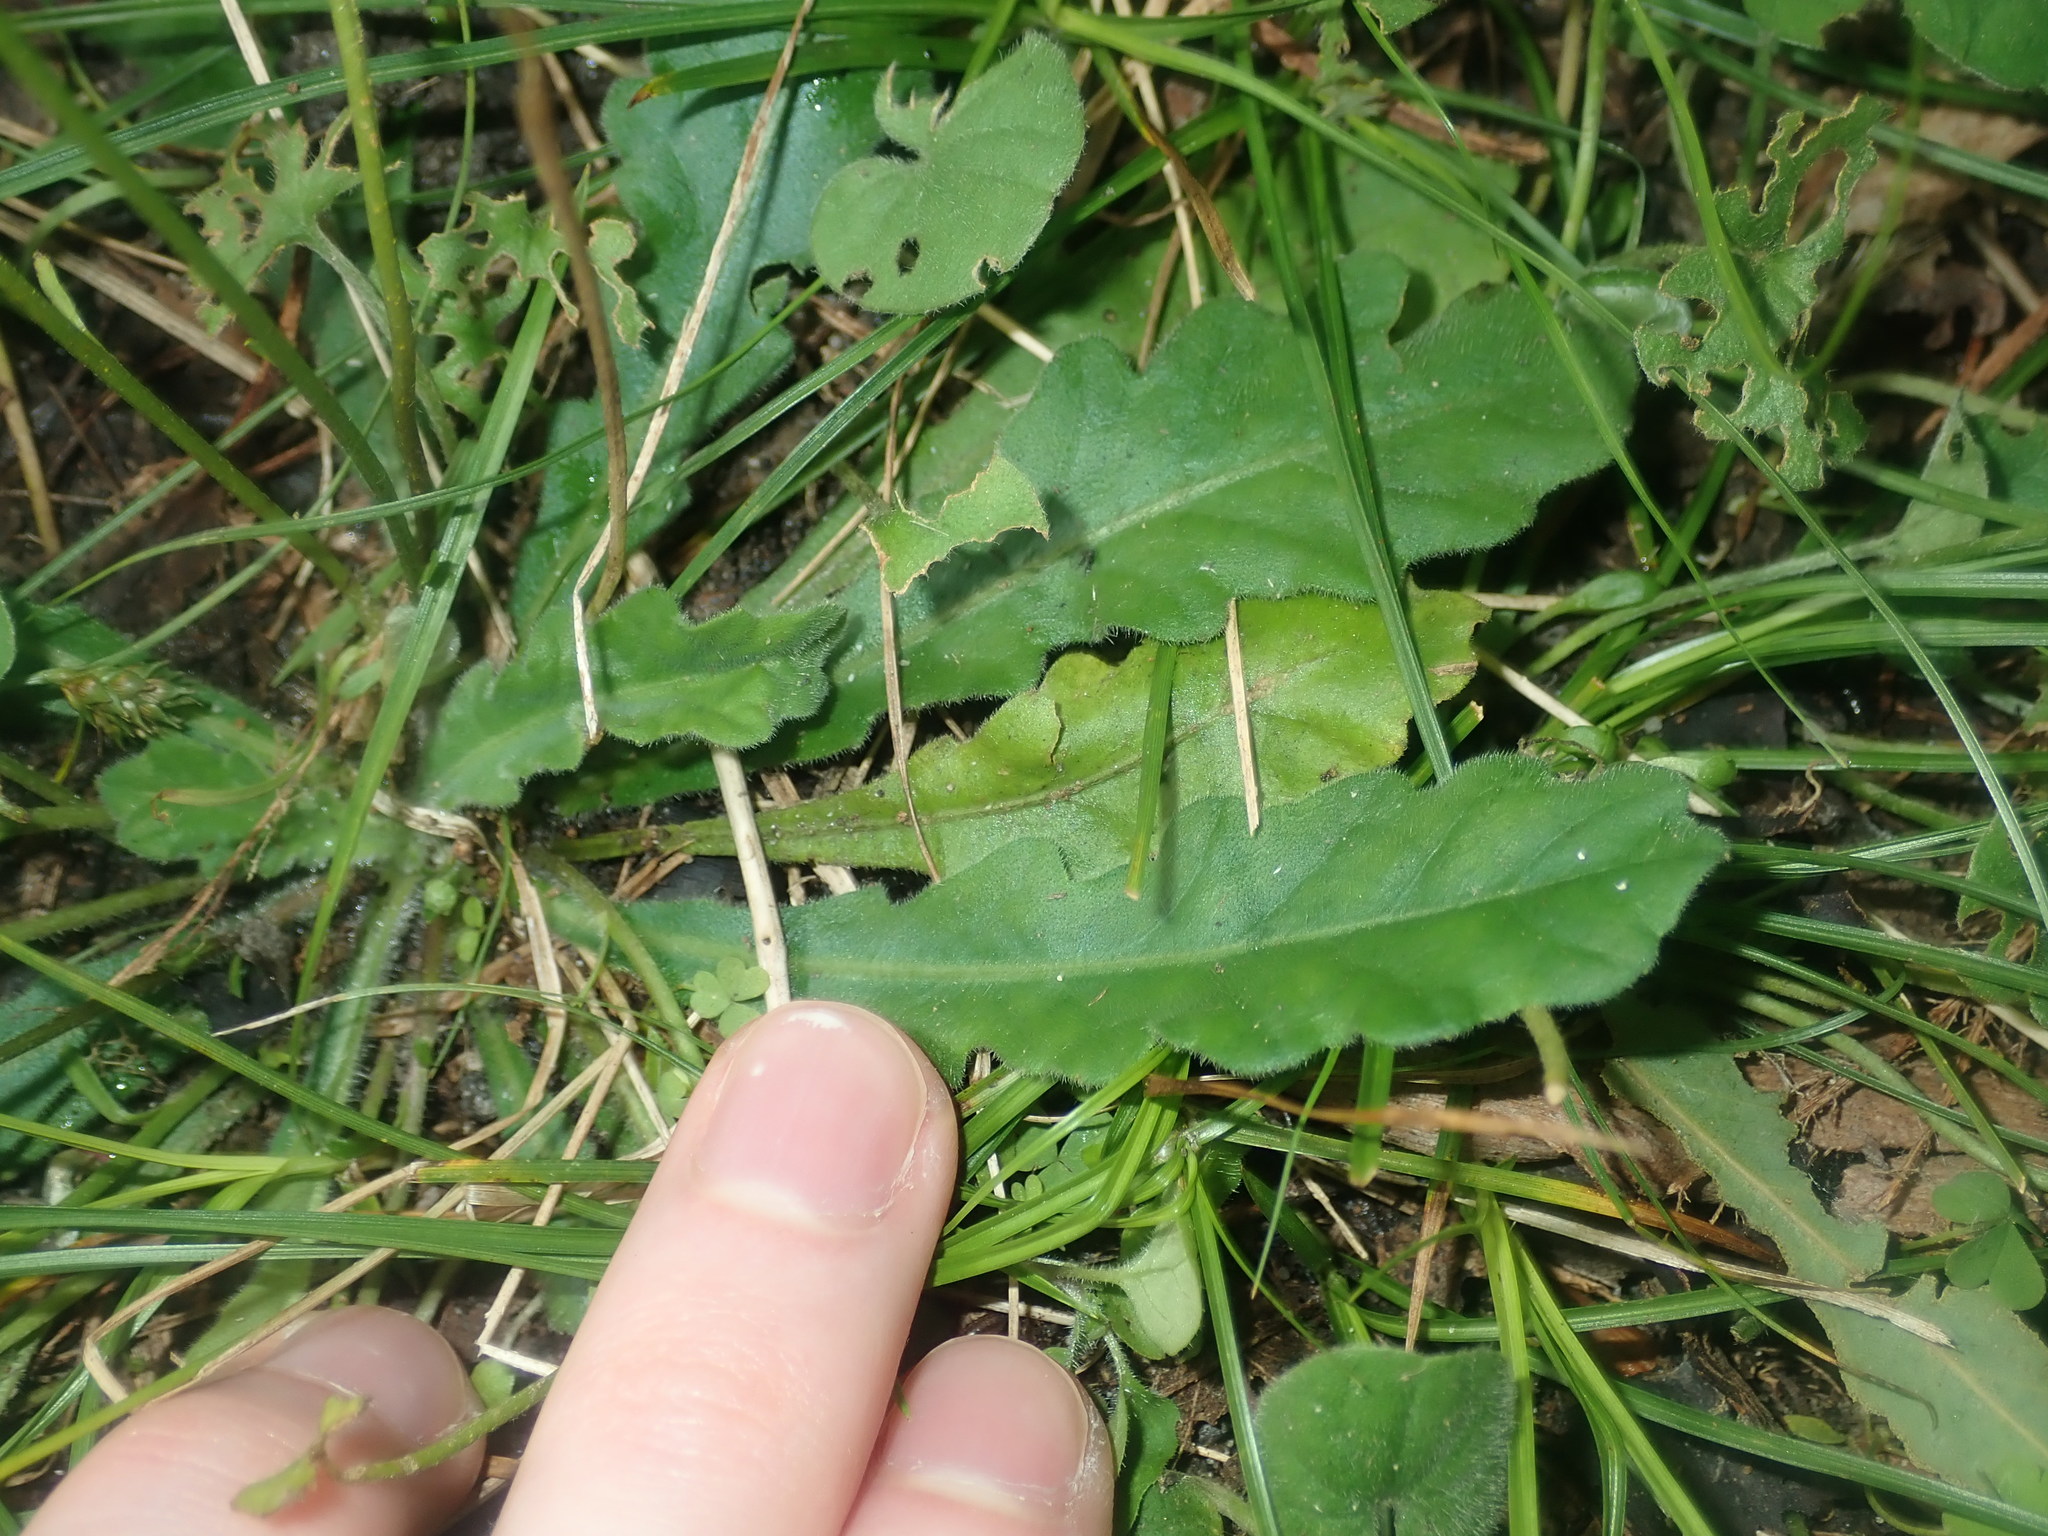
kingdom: Plantae
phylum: Tracheophyta
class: Magnoliopsida
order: Asterales
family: Asteraceae
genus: Lagenophora
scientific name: Lagenophora brachyglossa
